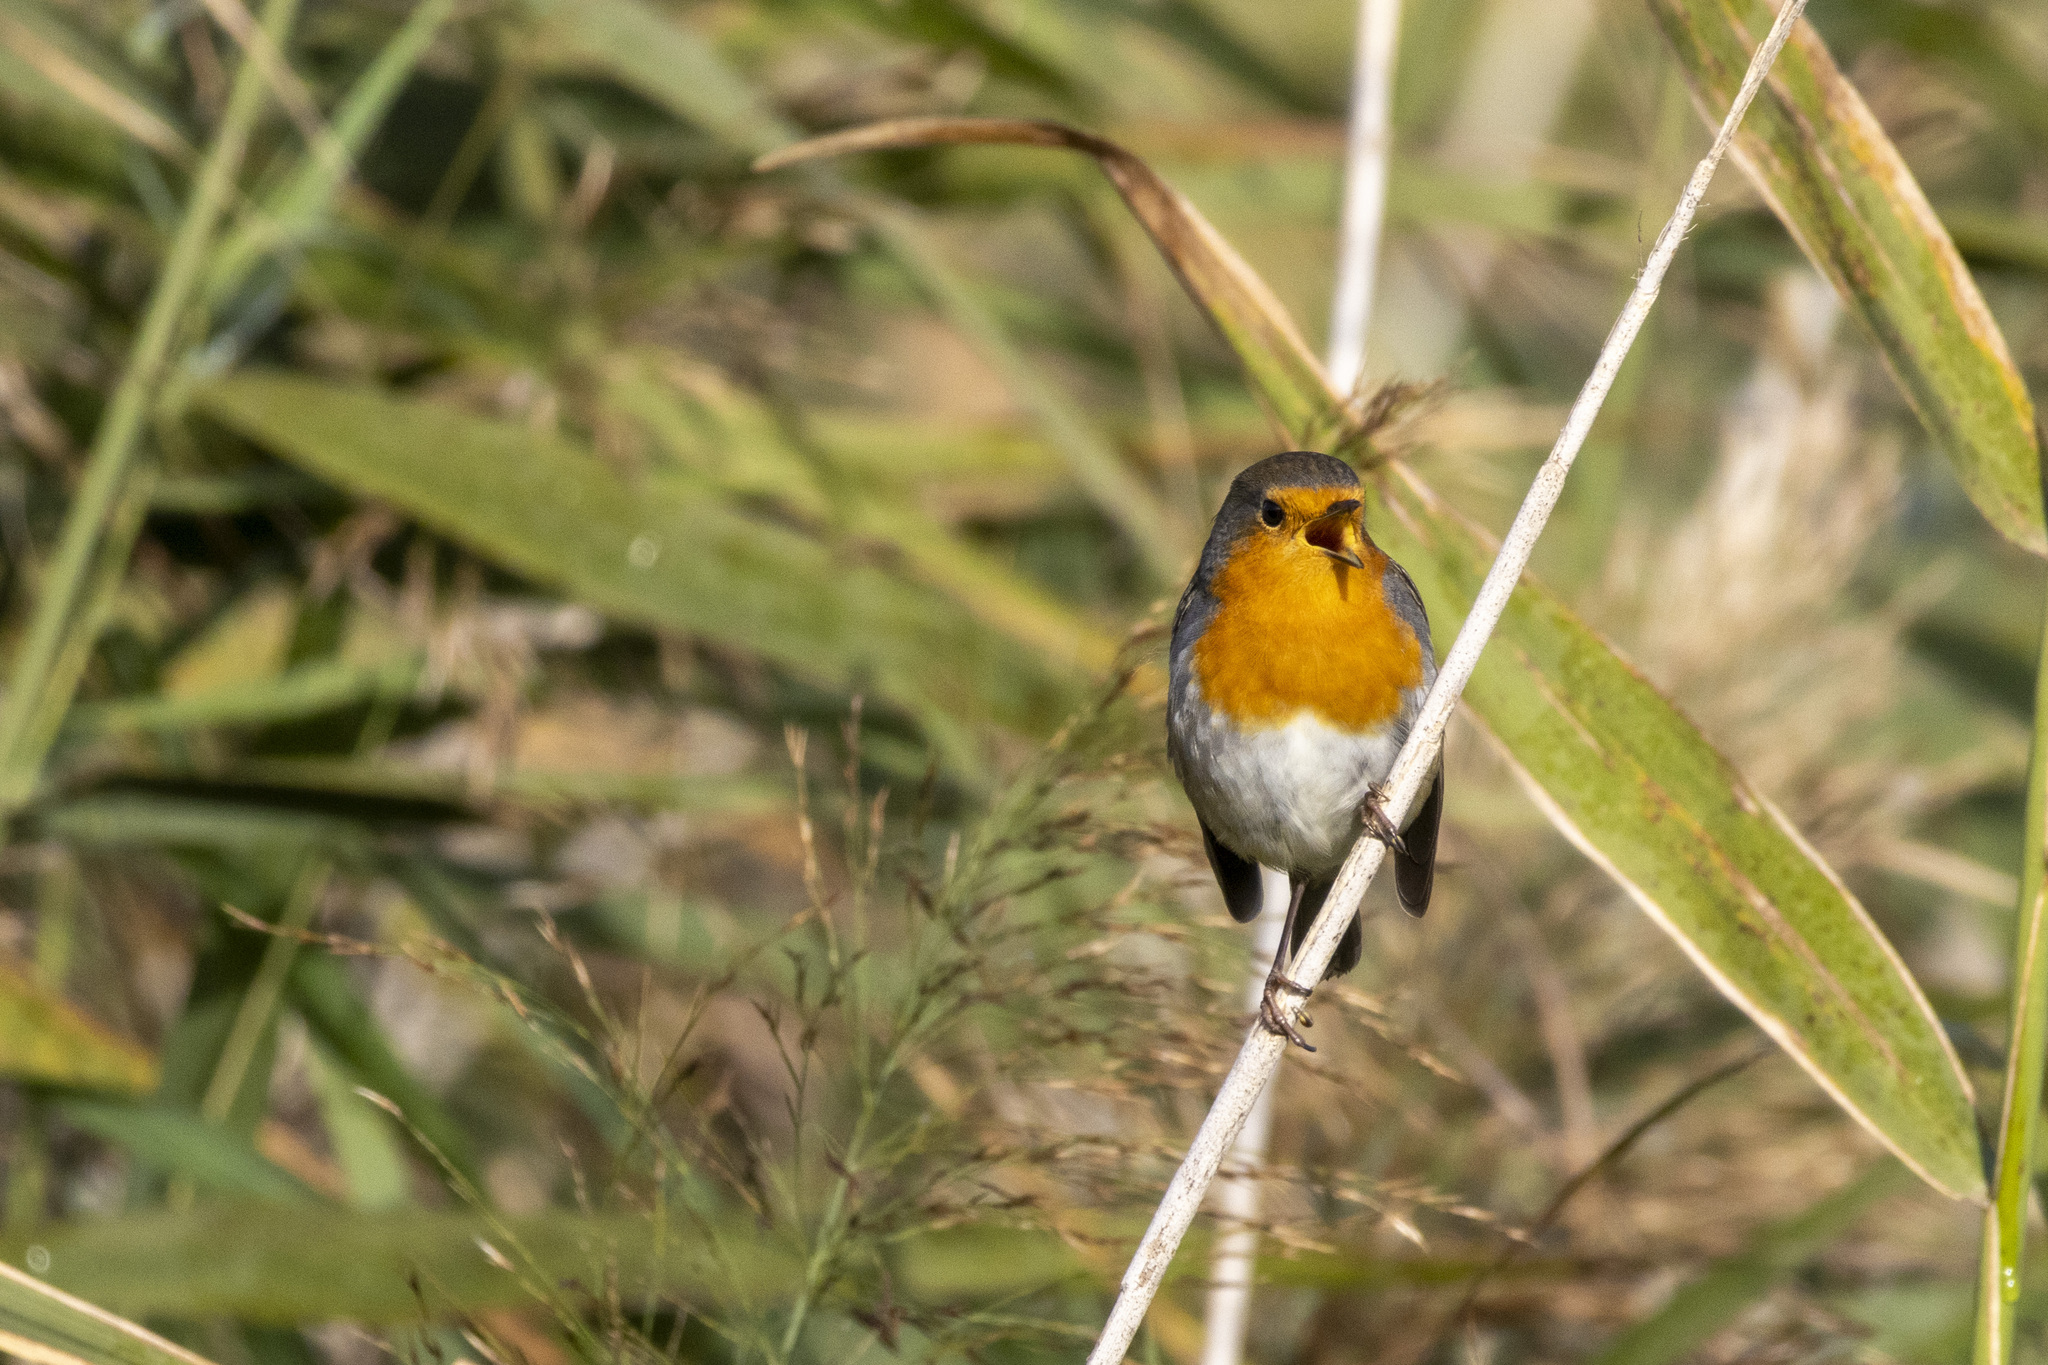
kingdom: Animalia
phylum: Chordata
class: Aves
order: Passeriformes
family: Muscicapidae
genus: Erithacus
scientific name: Erithacus rubecula
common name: European robin
